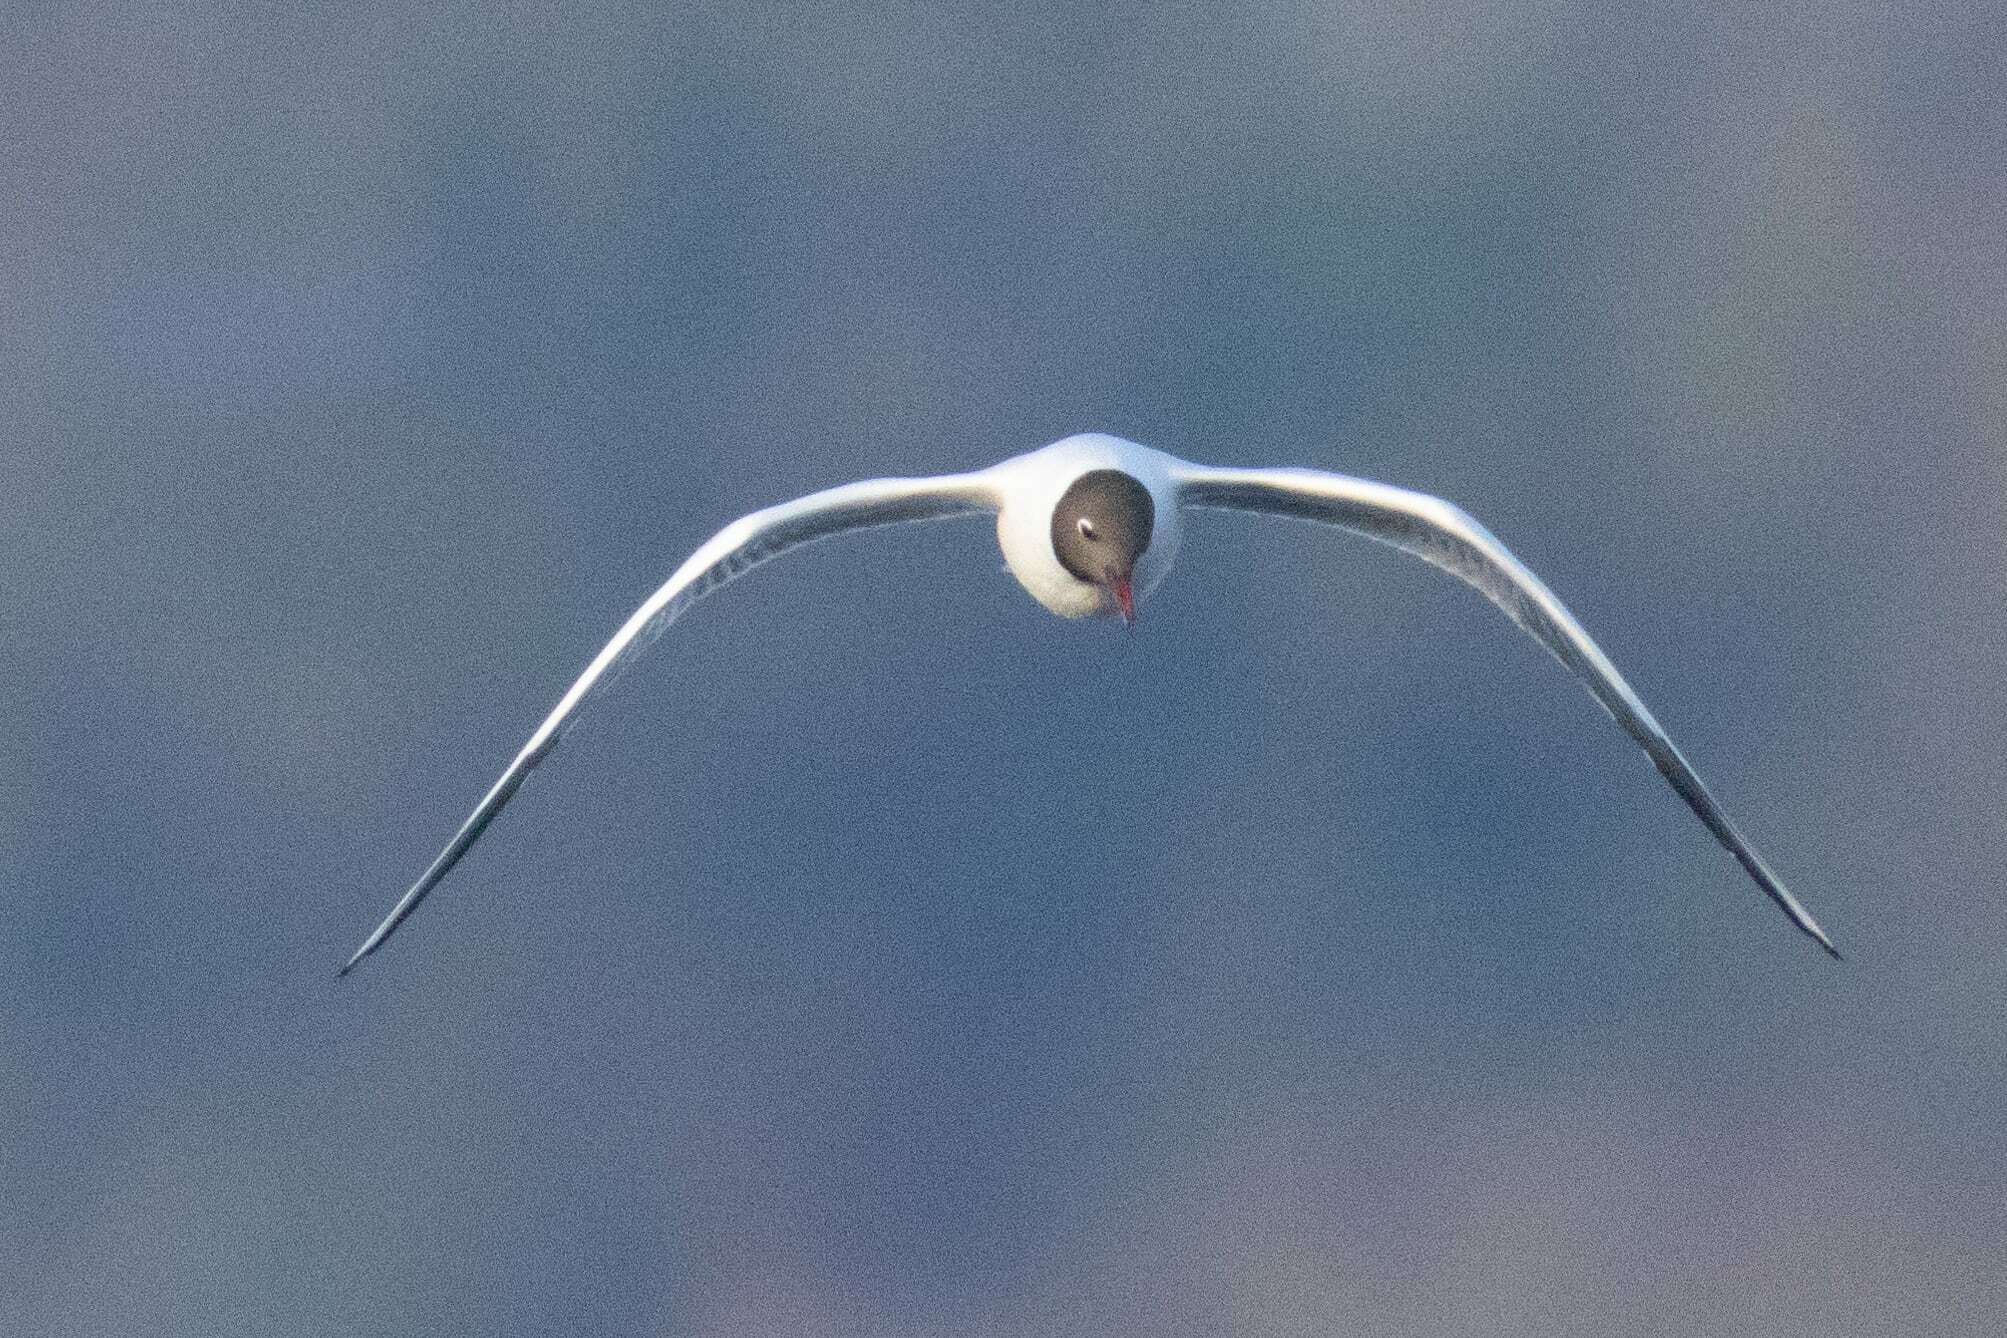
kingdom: Animalia
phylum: Chordata
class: Aves
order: Charadriiformes
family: Laridae
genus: Chroicocephalus
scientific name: Chroicocephalus ridibundus
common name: Black-headed gull
